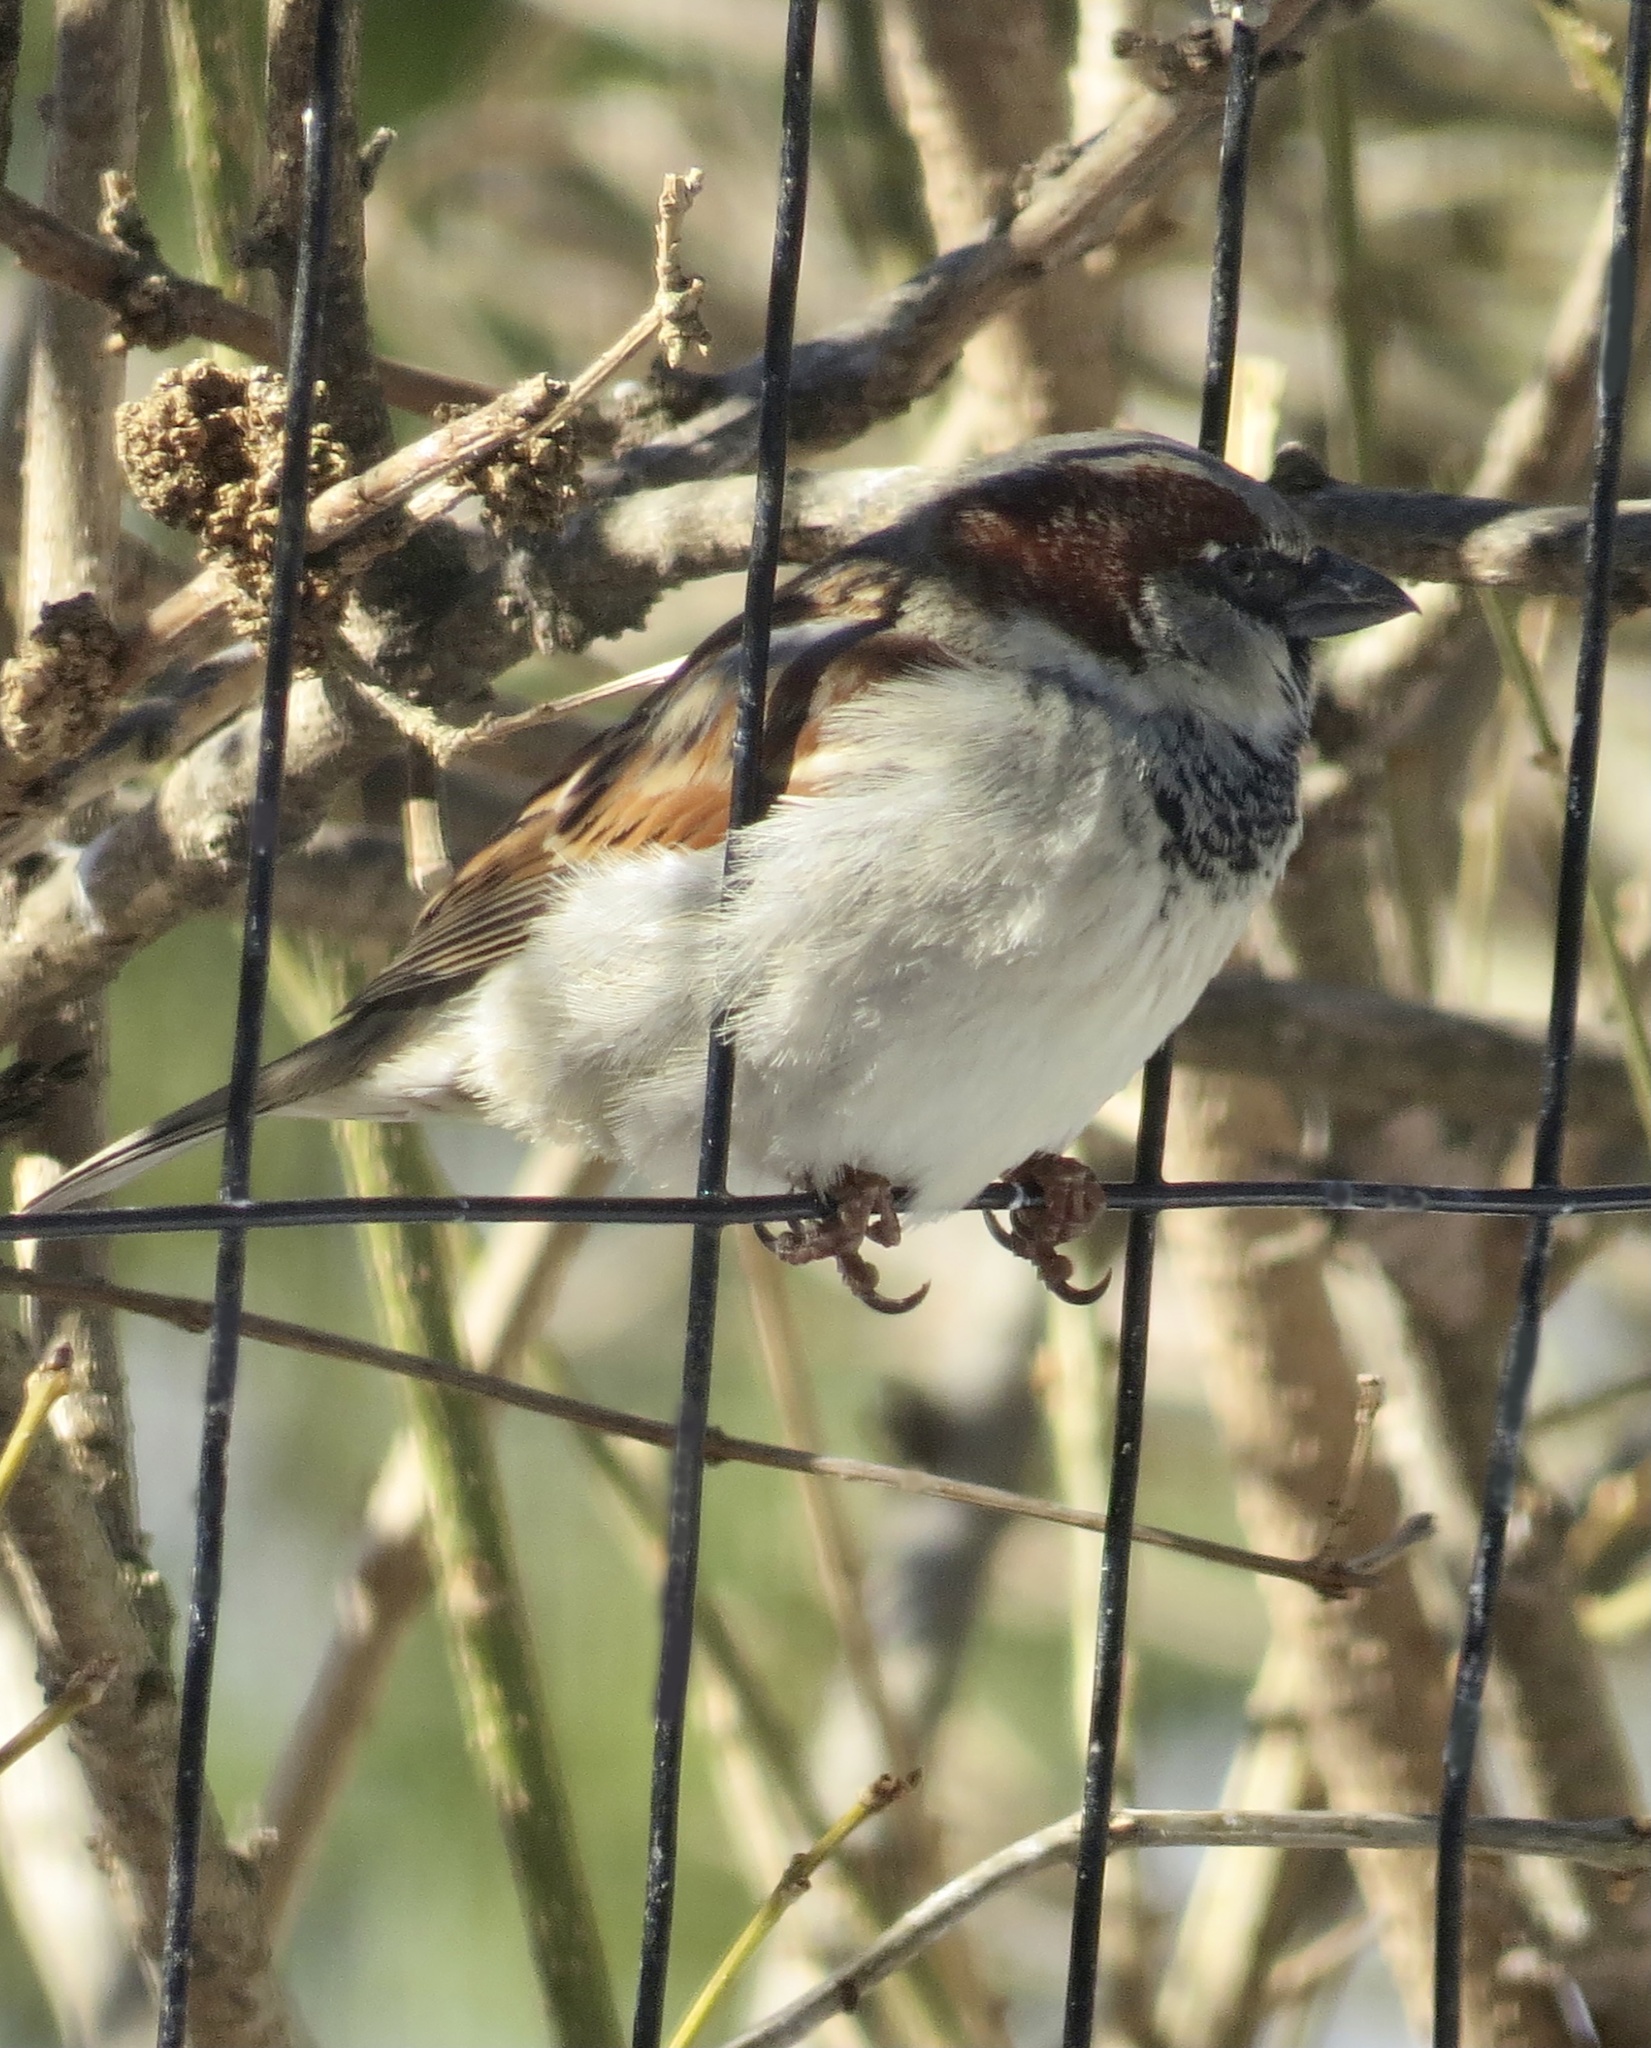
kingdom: Animalia
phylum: Chordata
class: Aves
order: Passeriformes
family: Passeridae
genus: Passer
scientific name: Passer domesticus
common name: House sparrow
